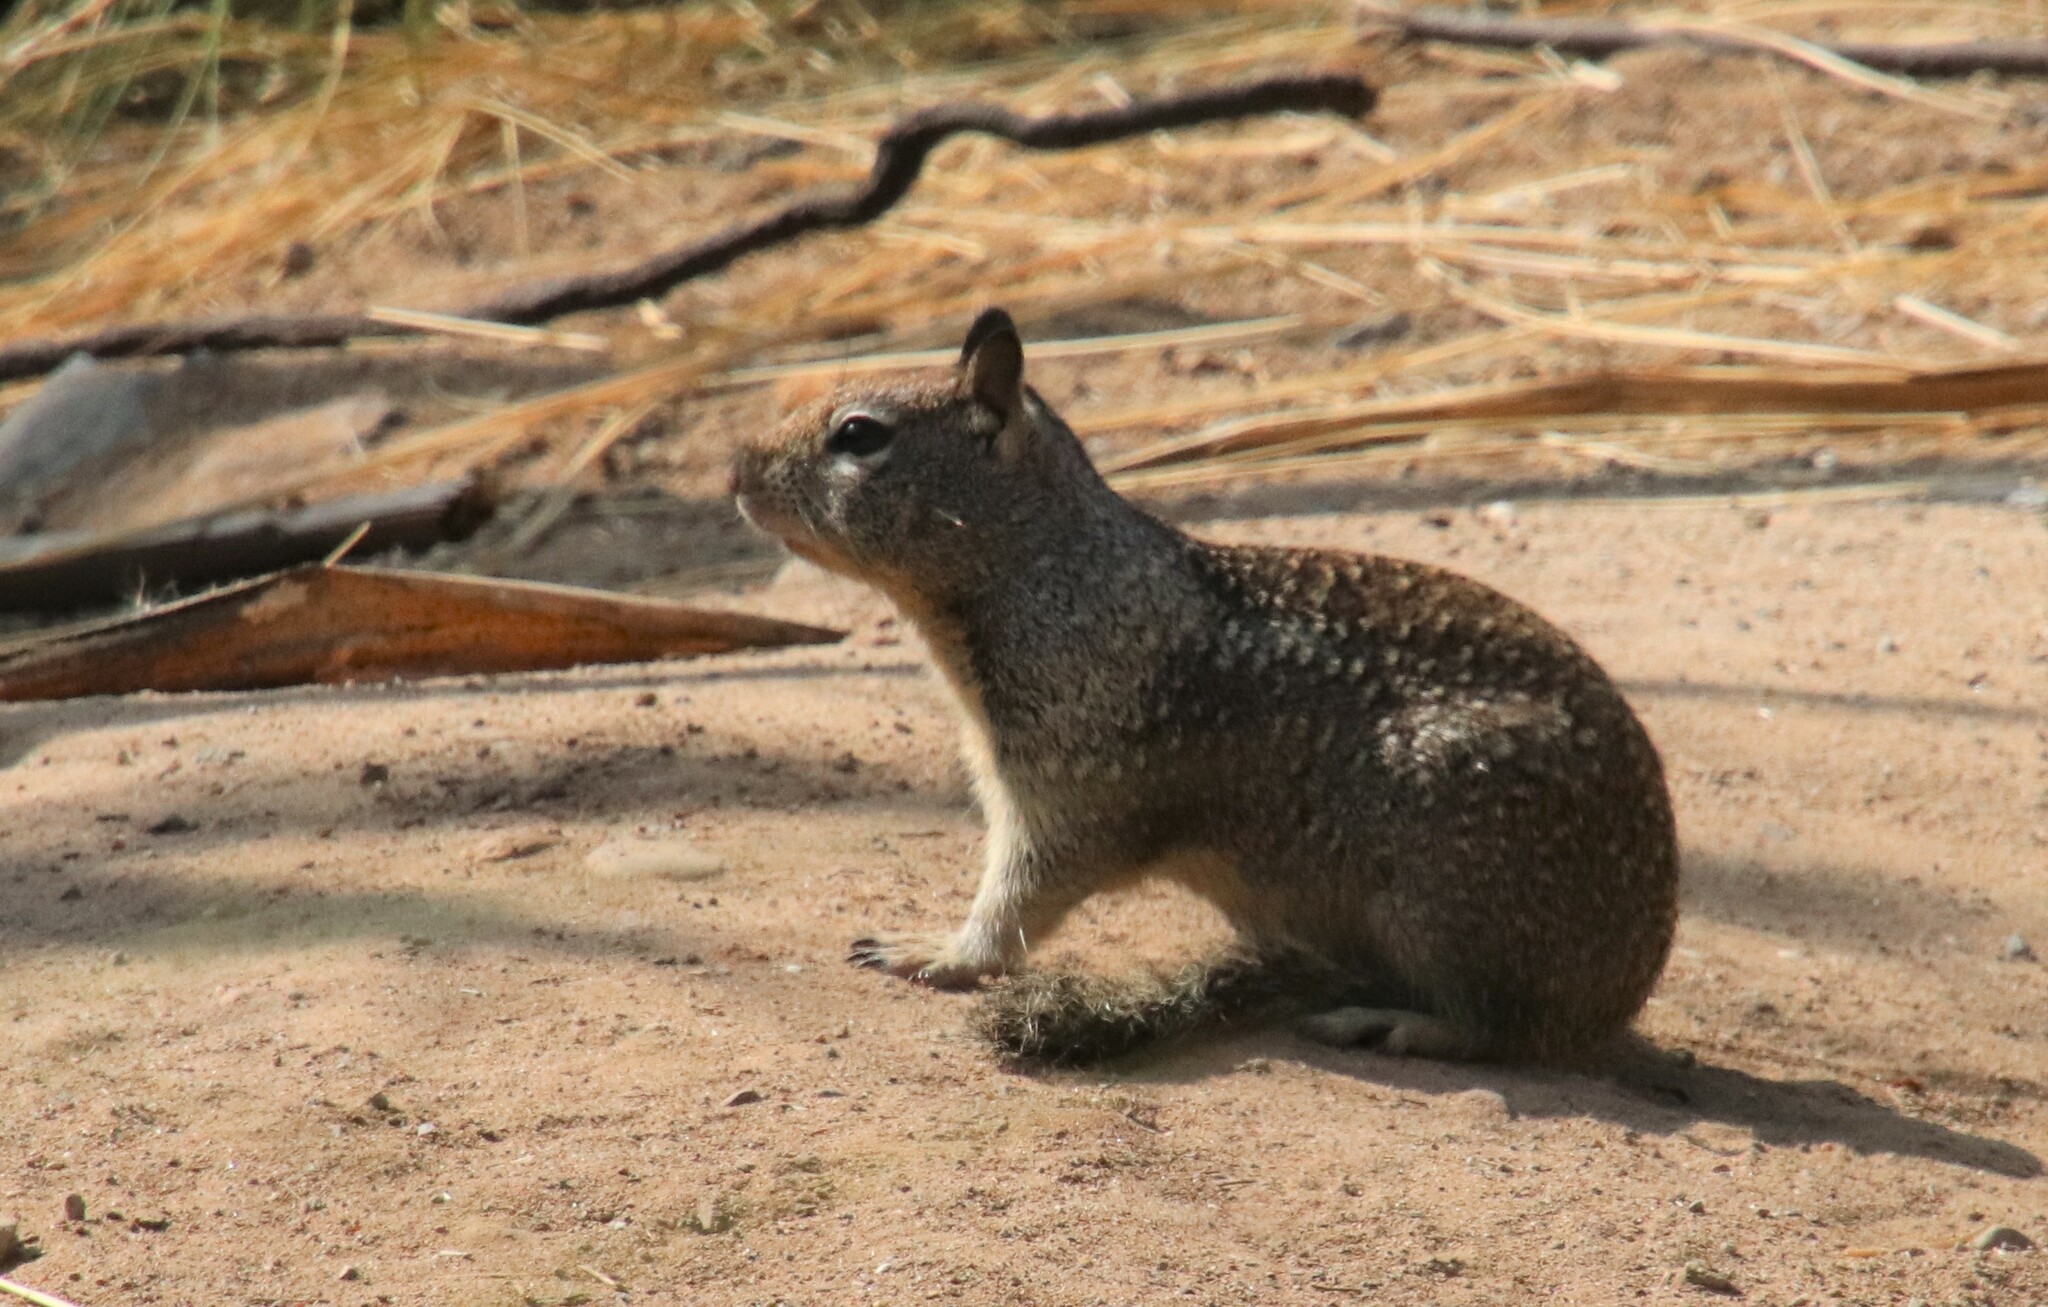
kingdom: Animalia
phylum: Chordata
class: Mammalia
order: Rodentia
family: Sciuridae
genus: Otospermophilus
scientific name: Otospermophilus beecheyi
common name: California ground squirrel
